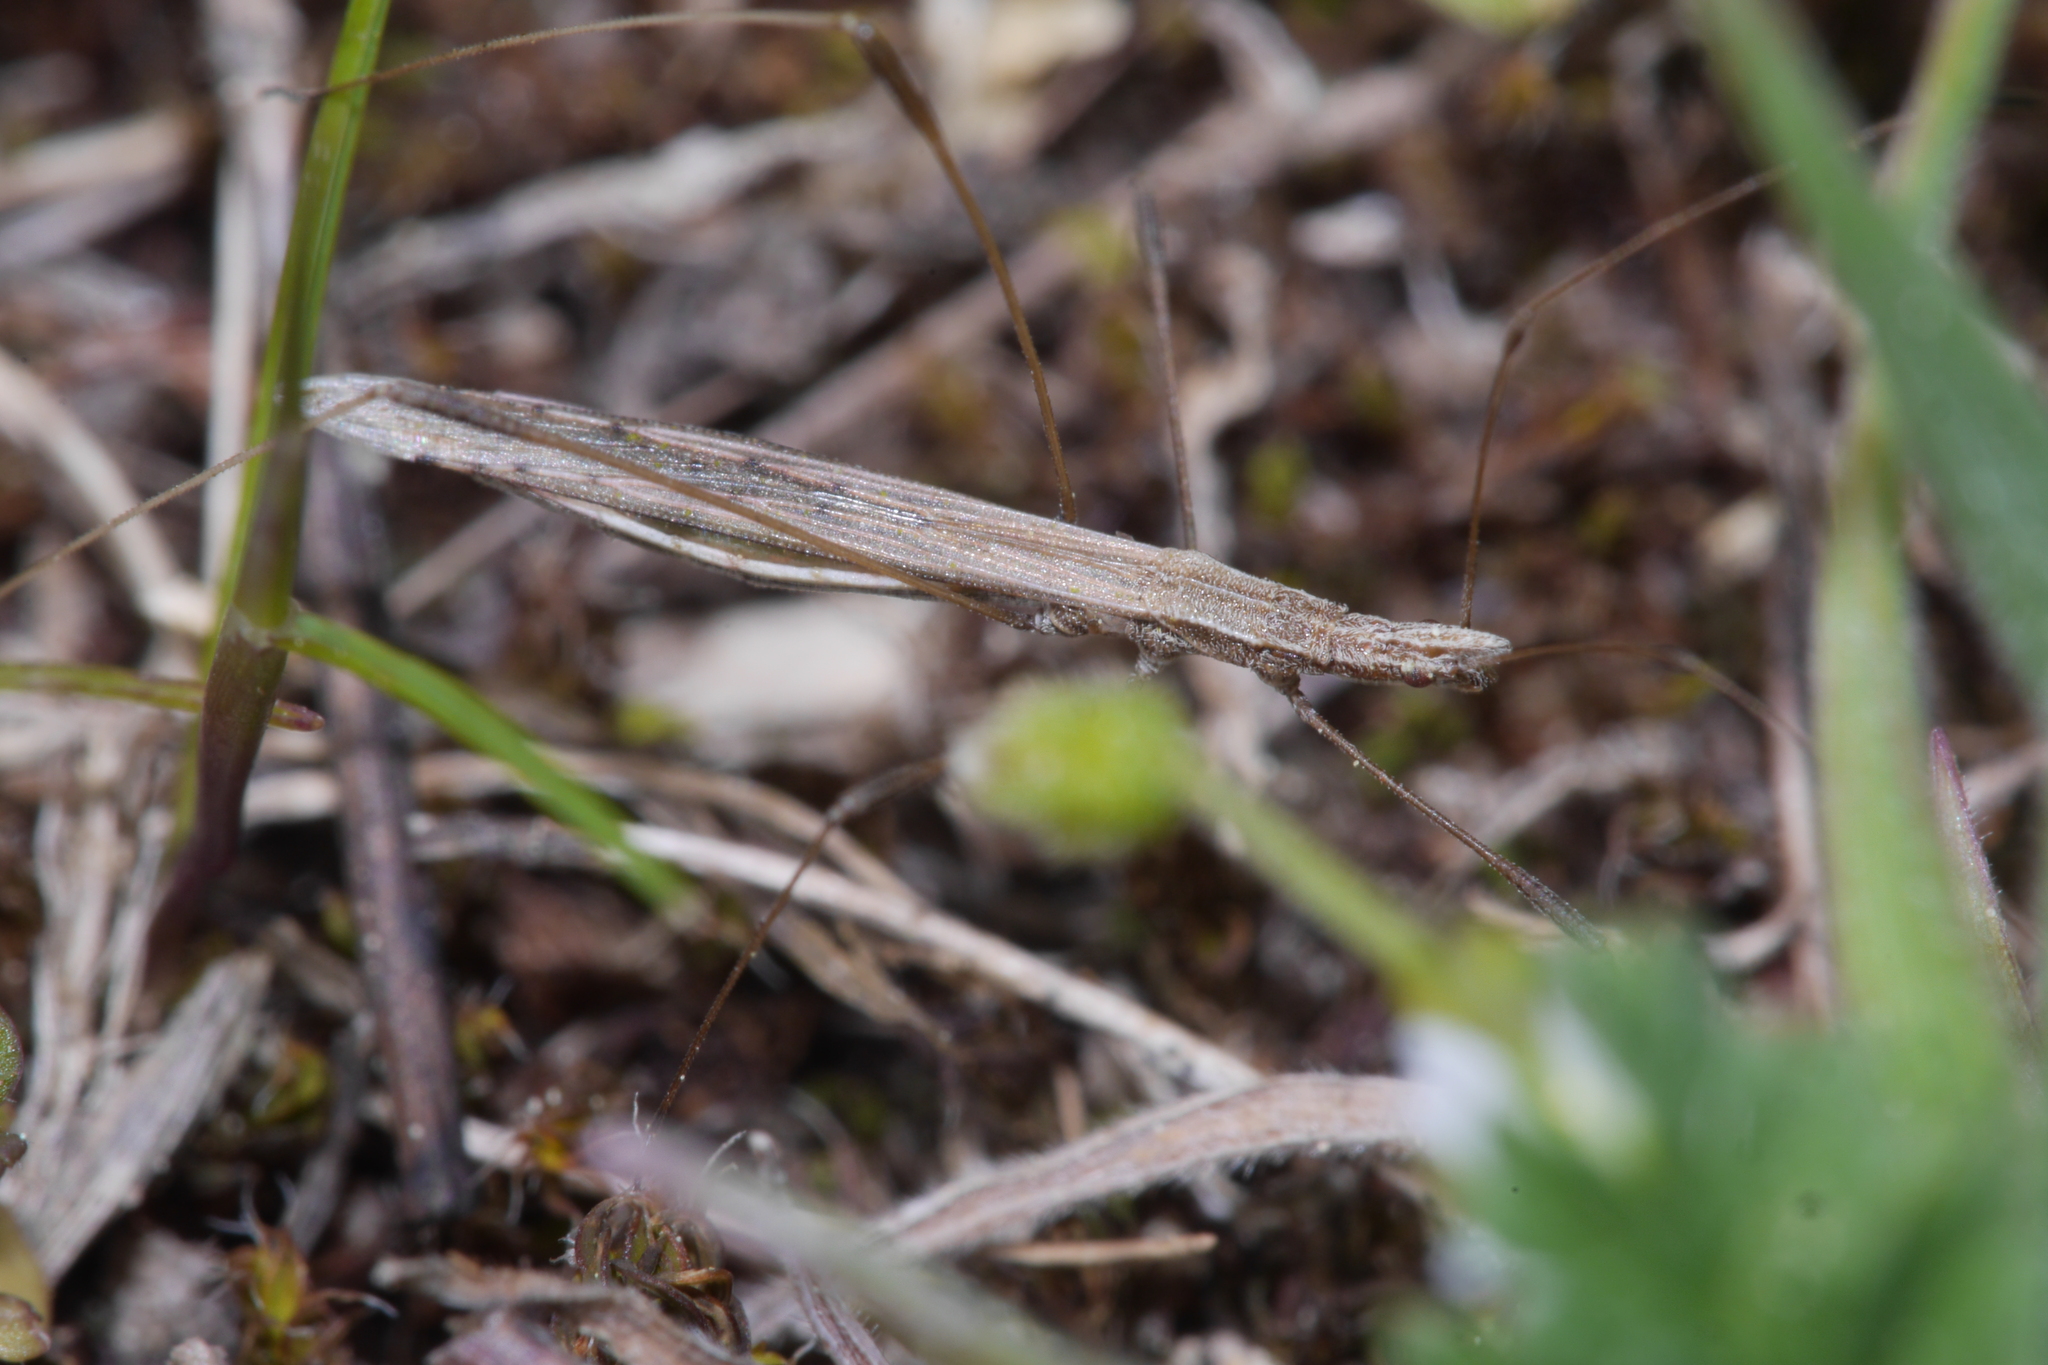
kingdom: Animalia
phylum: Arthropoda
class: Insecta
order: Hemiptera
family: Berytidae
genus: Neides
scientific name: Neides tipularius
